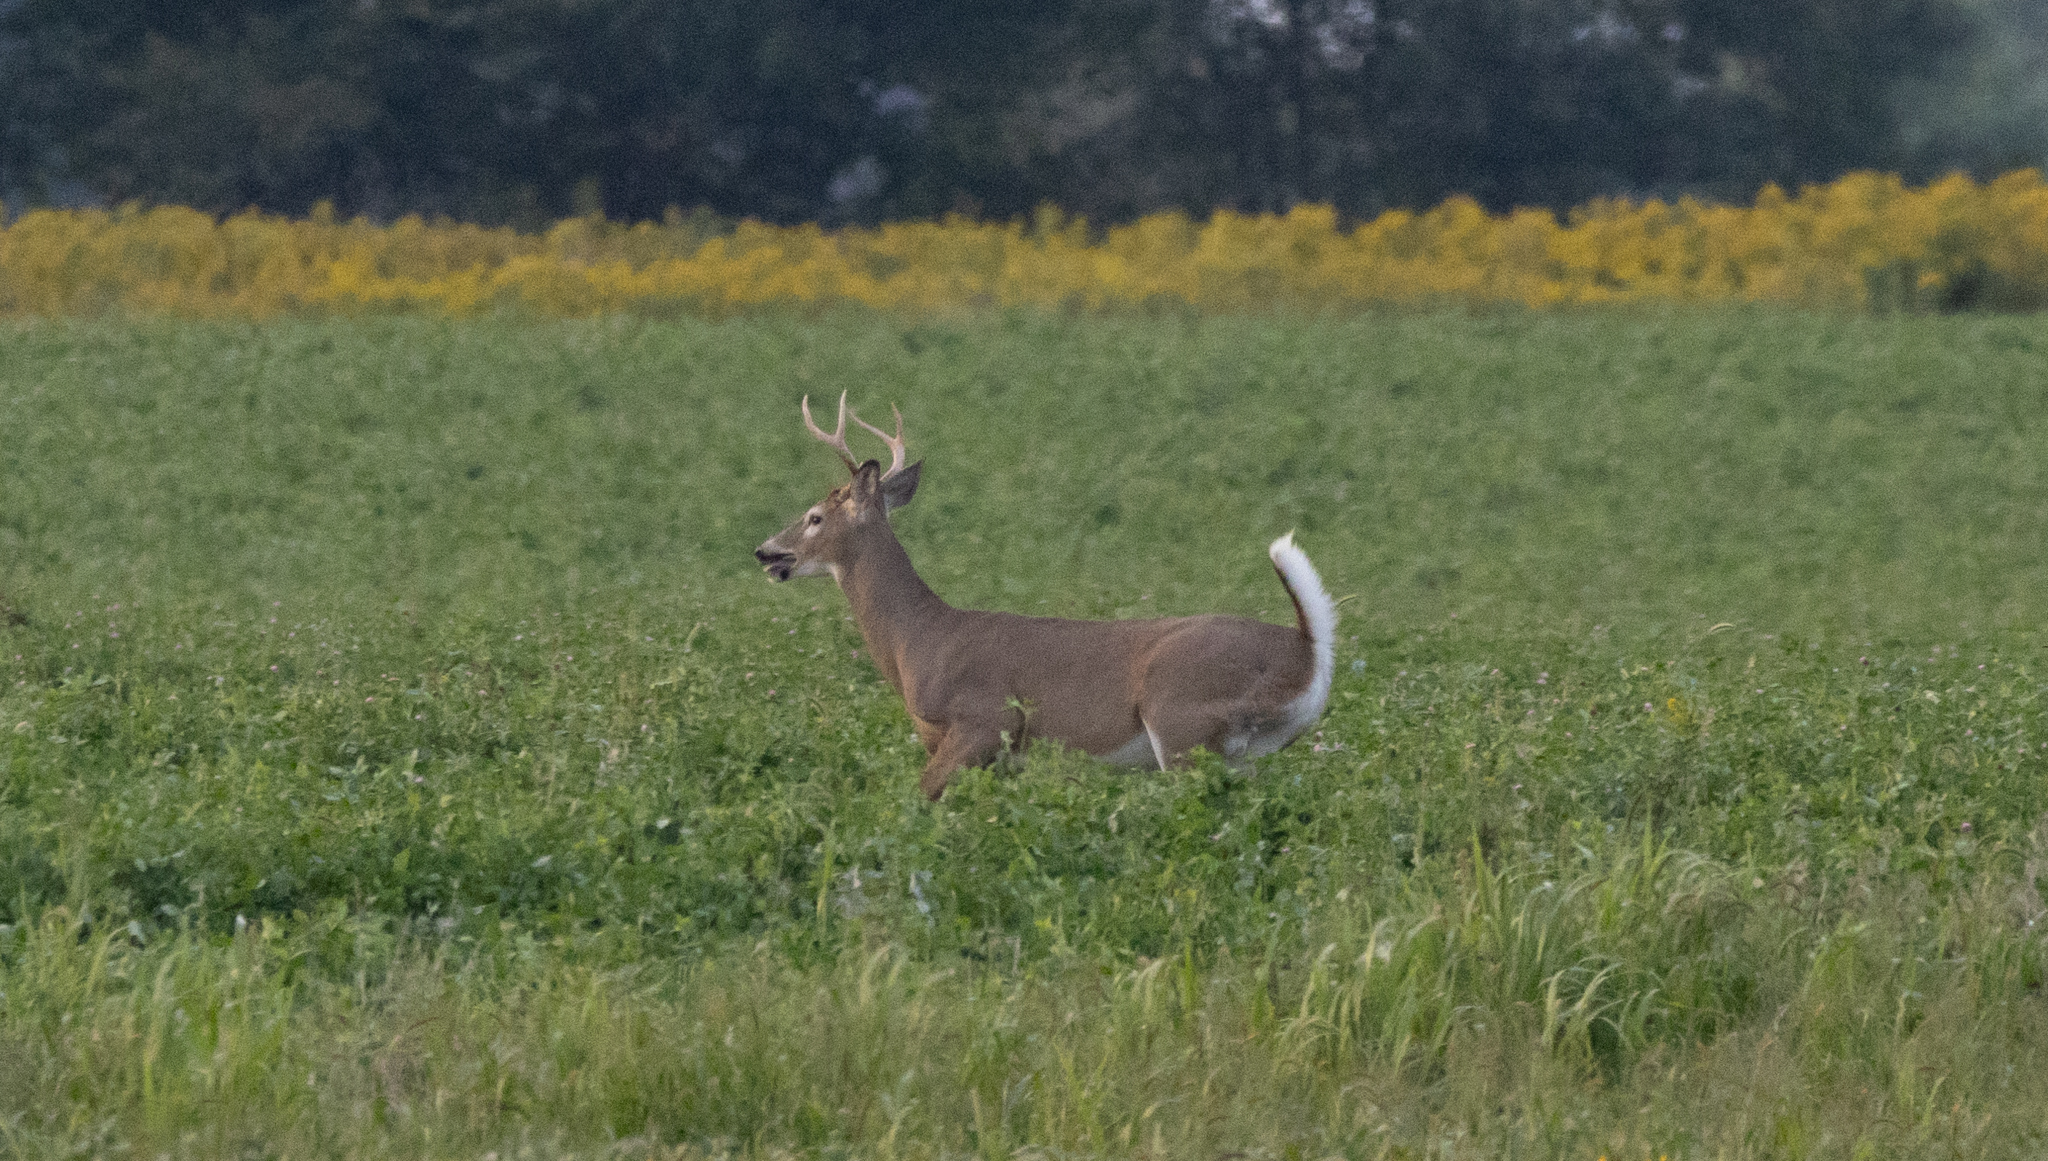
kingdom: Animalia
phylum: Chordata
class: Mammalia
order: Artiodactyla
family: Cervidae
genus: Odocoileus
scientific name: Odocoileus virginianus
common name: White-tailed deer
